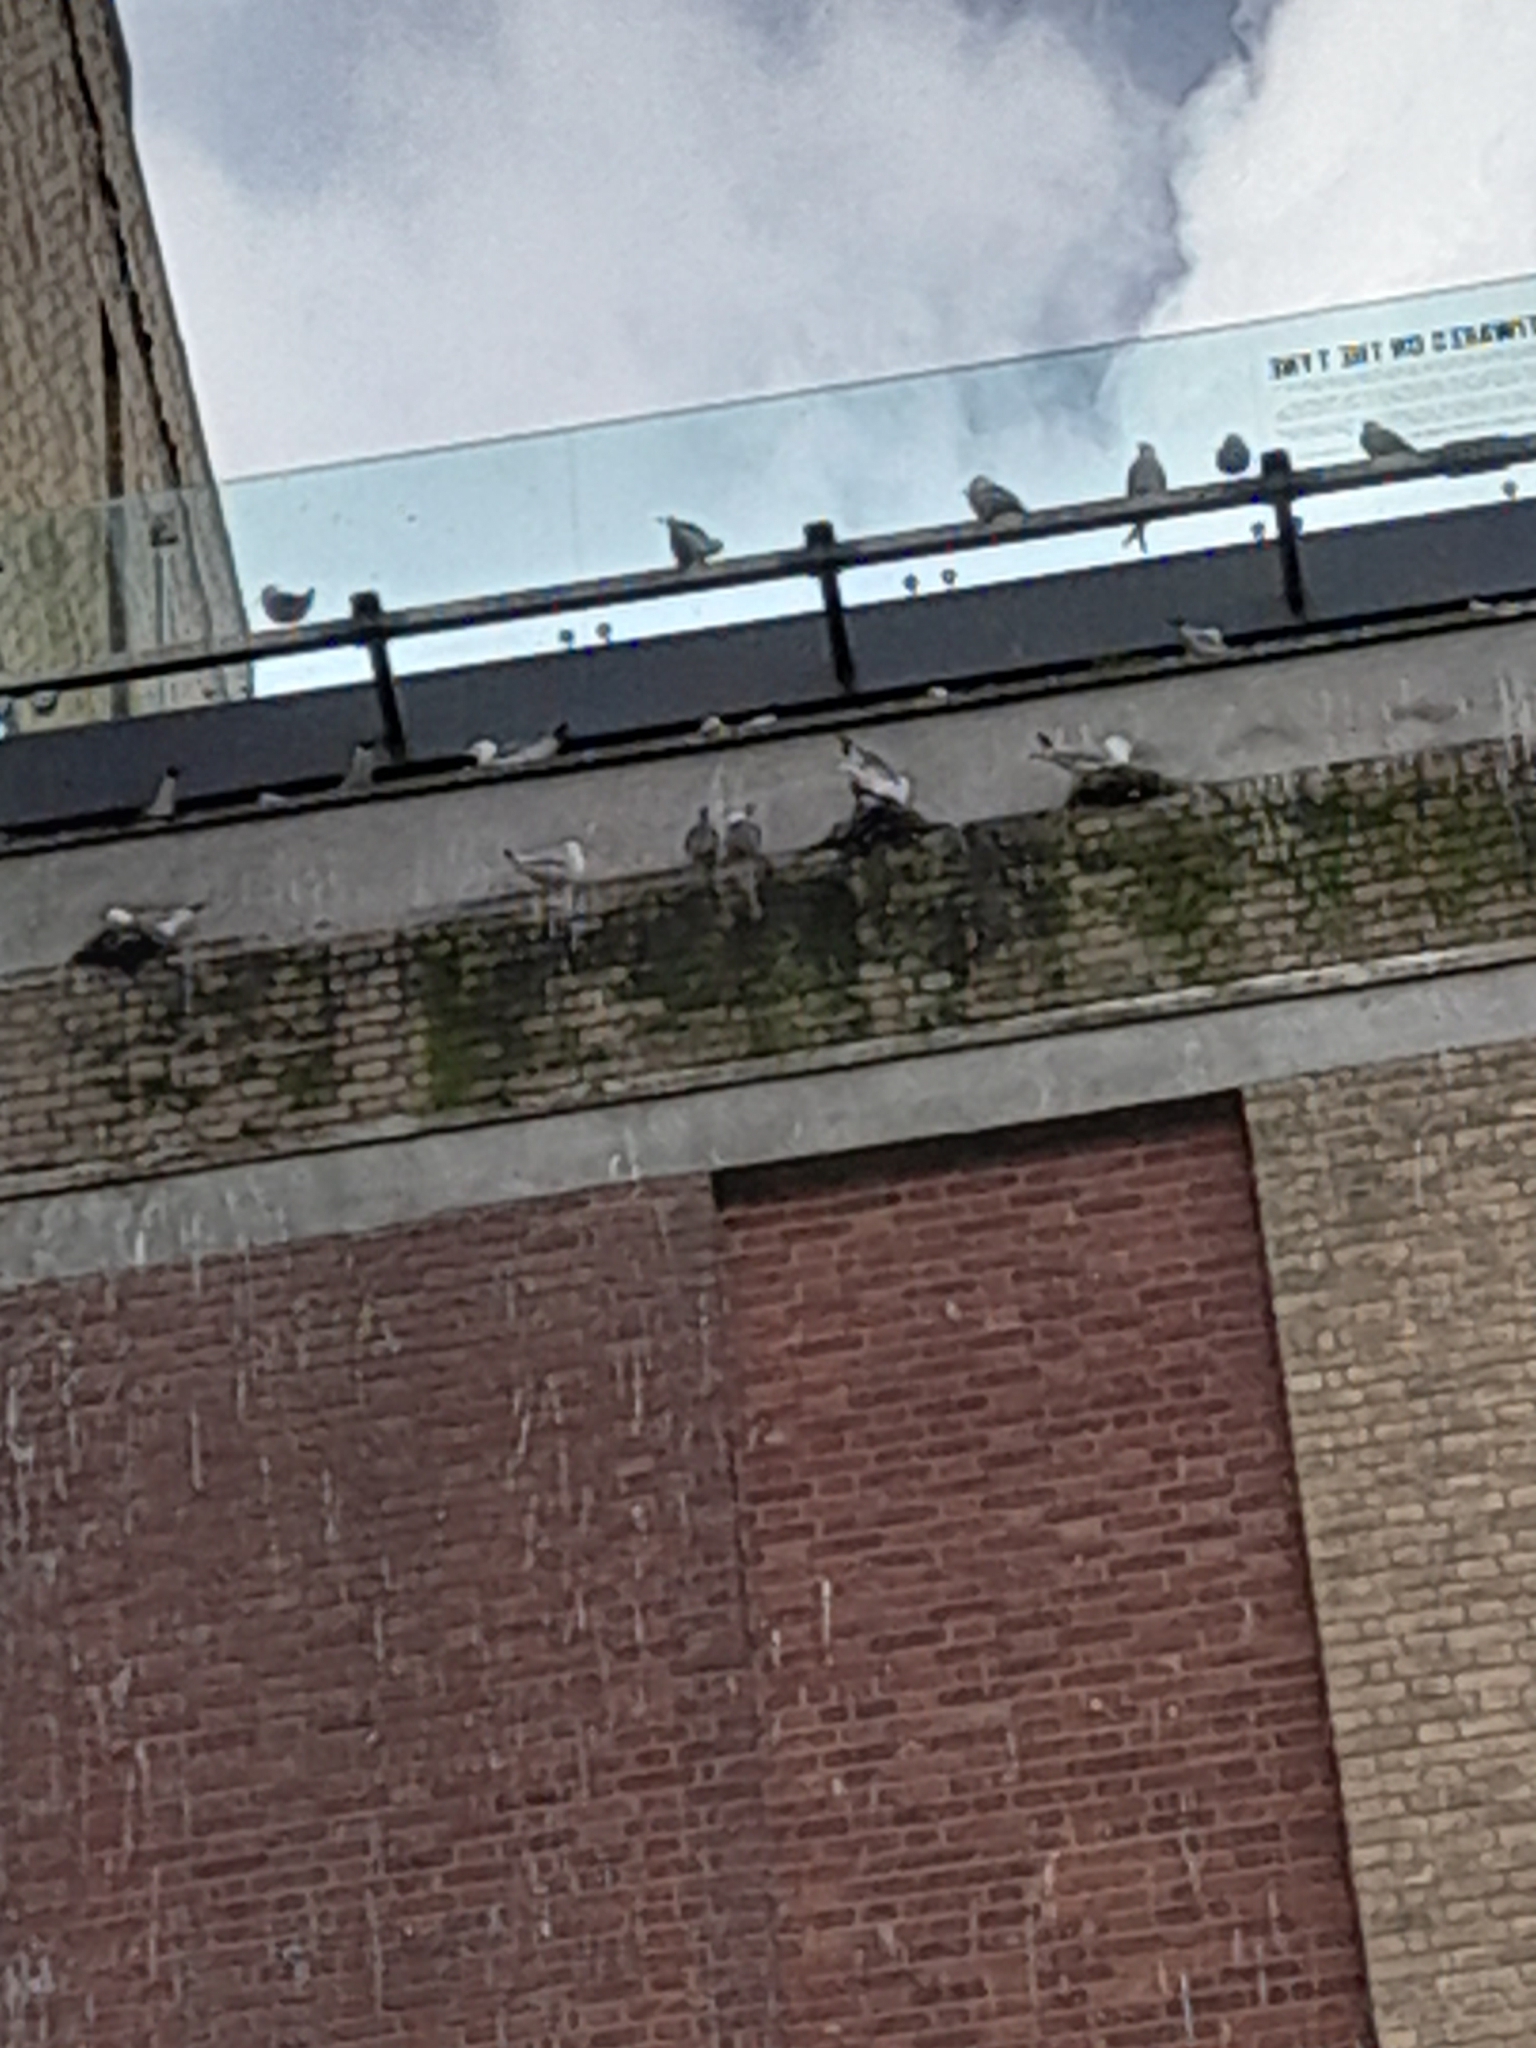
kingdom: Animalia
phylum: Chordata
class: Aves
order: Charadriiformes
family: Laridae
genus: Rissa
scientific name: Rissa tridactyla
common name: Black-legged kittiwake
